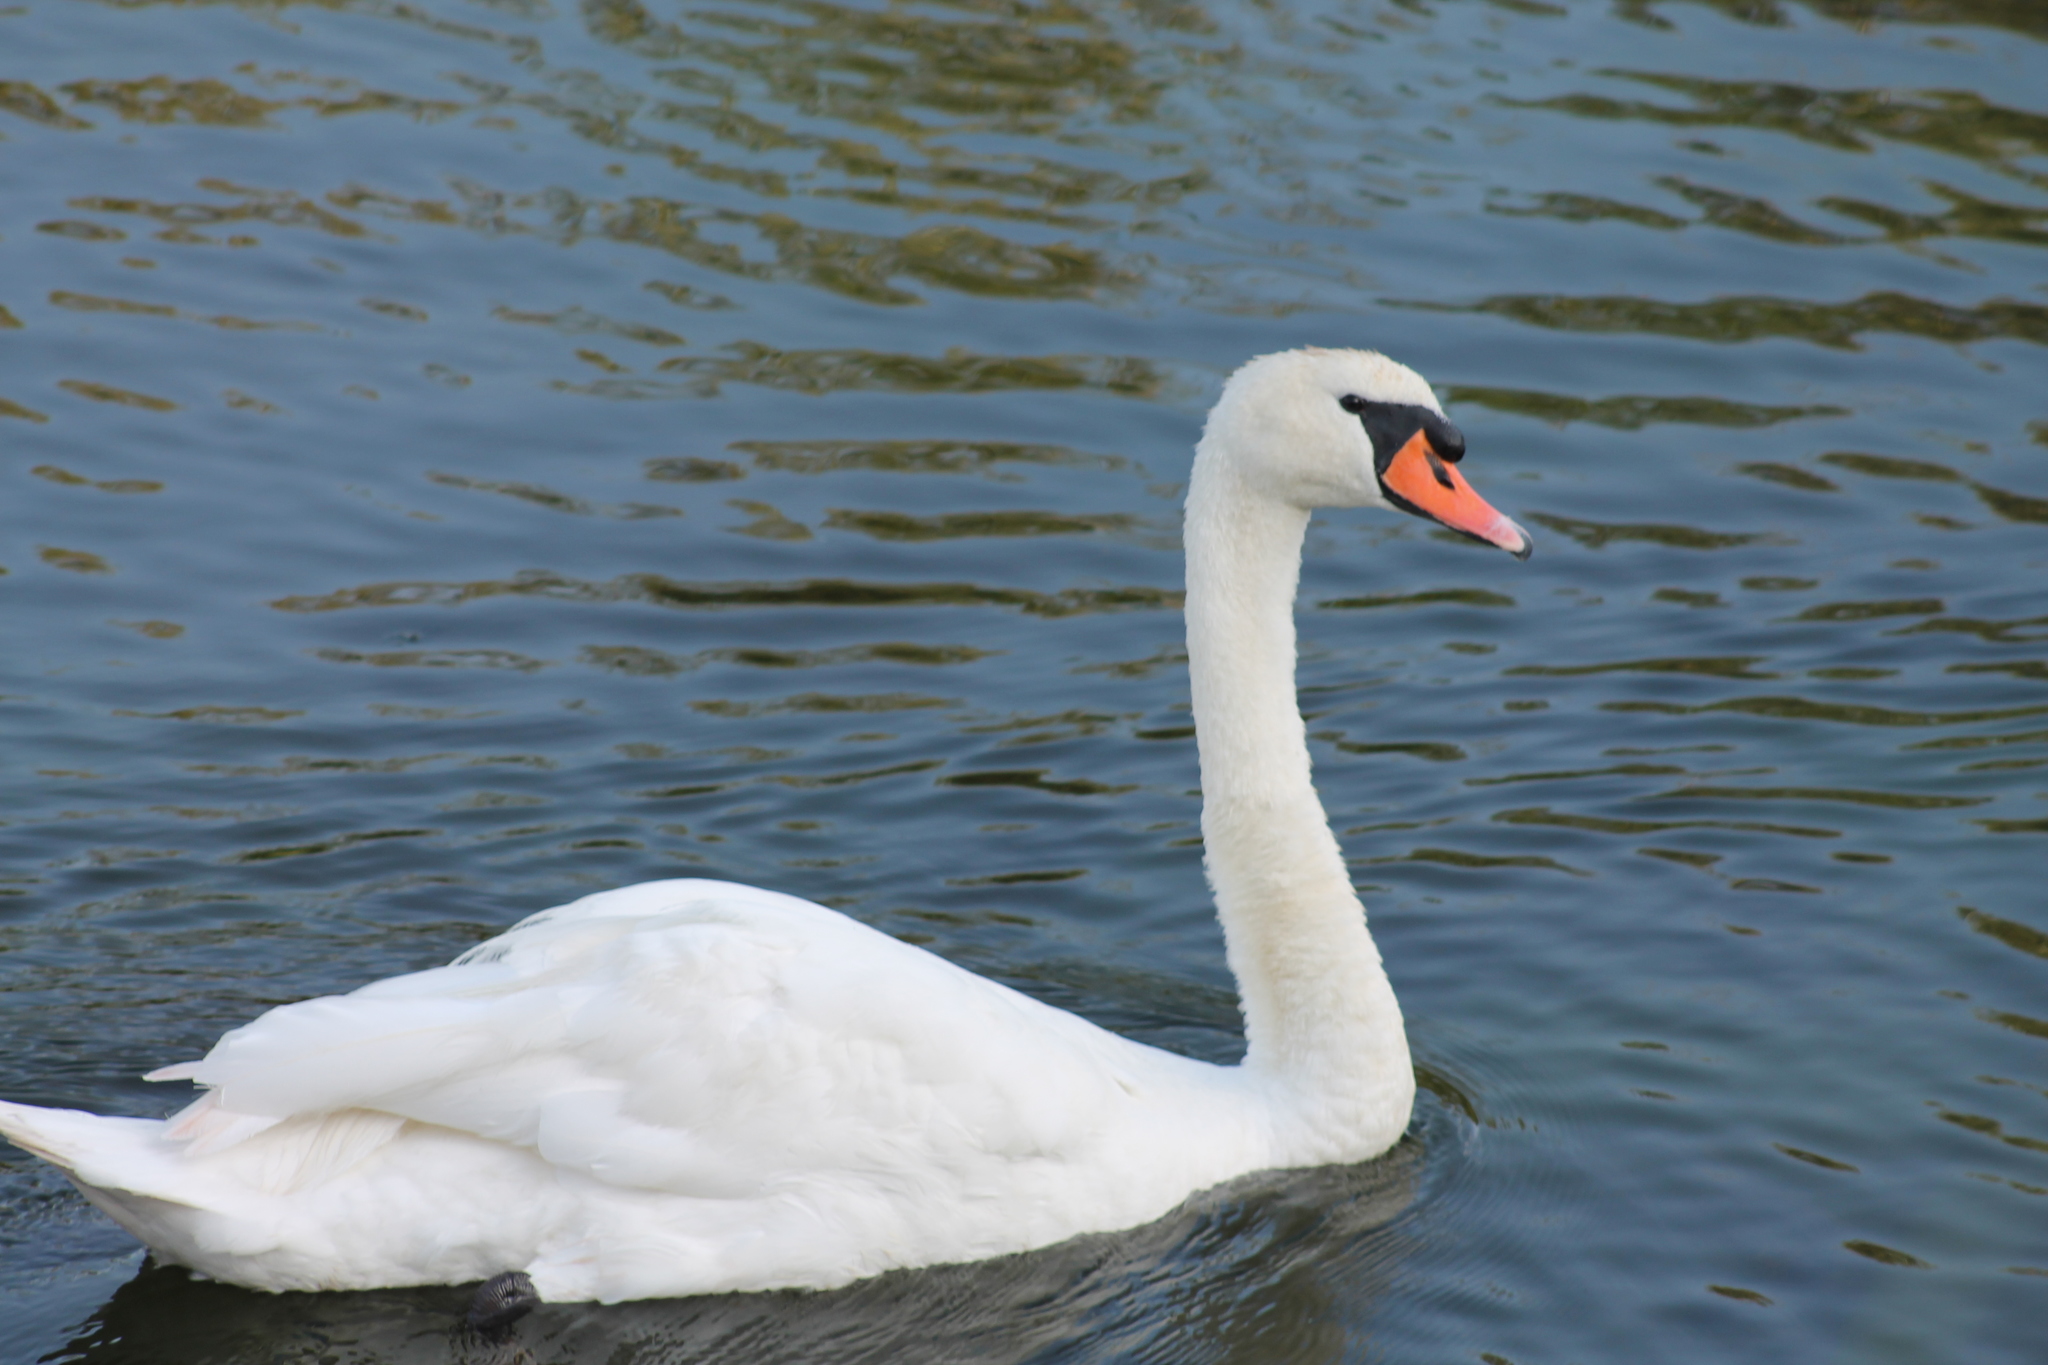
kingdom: Animalia
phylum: Chordata
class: Aves
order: Anseriformes
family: Anatidae
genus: Cygnus
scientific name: Cygnus olor
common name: Mute swan
